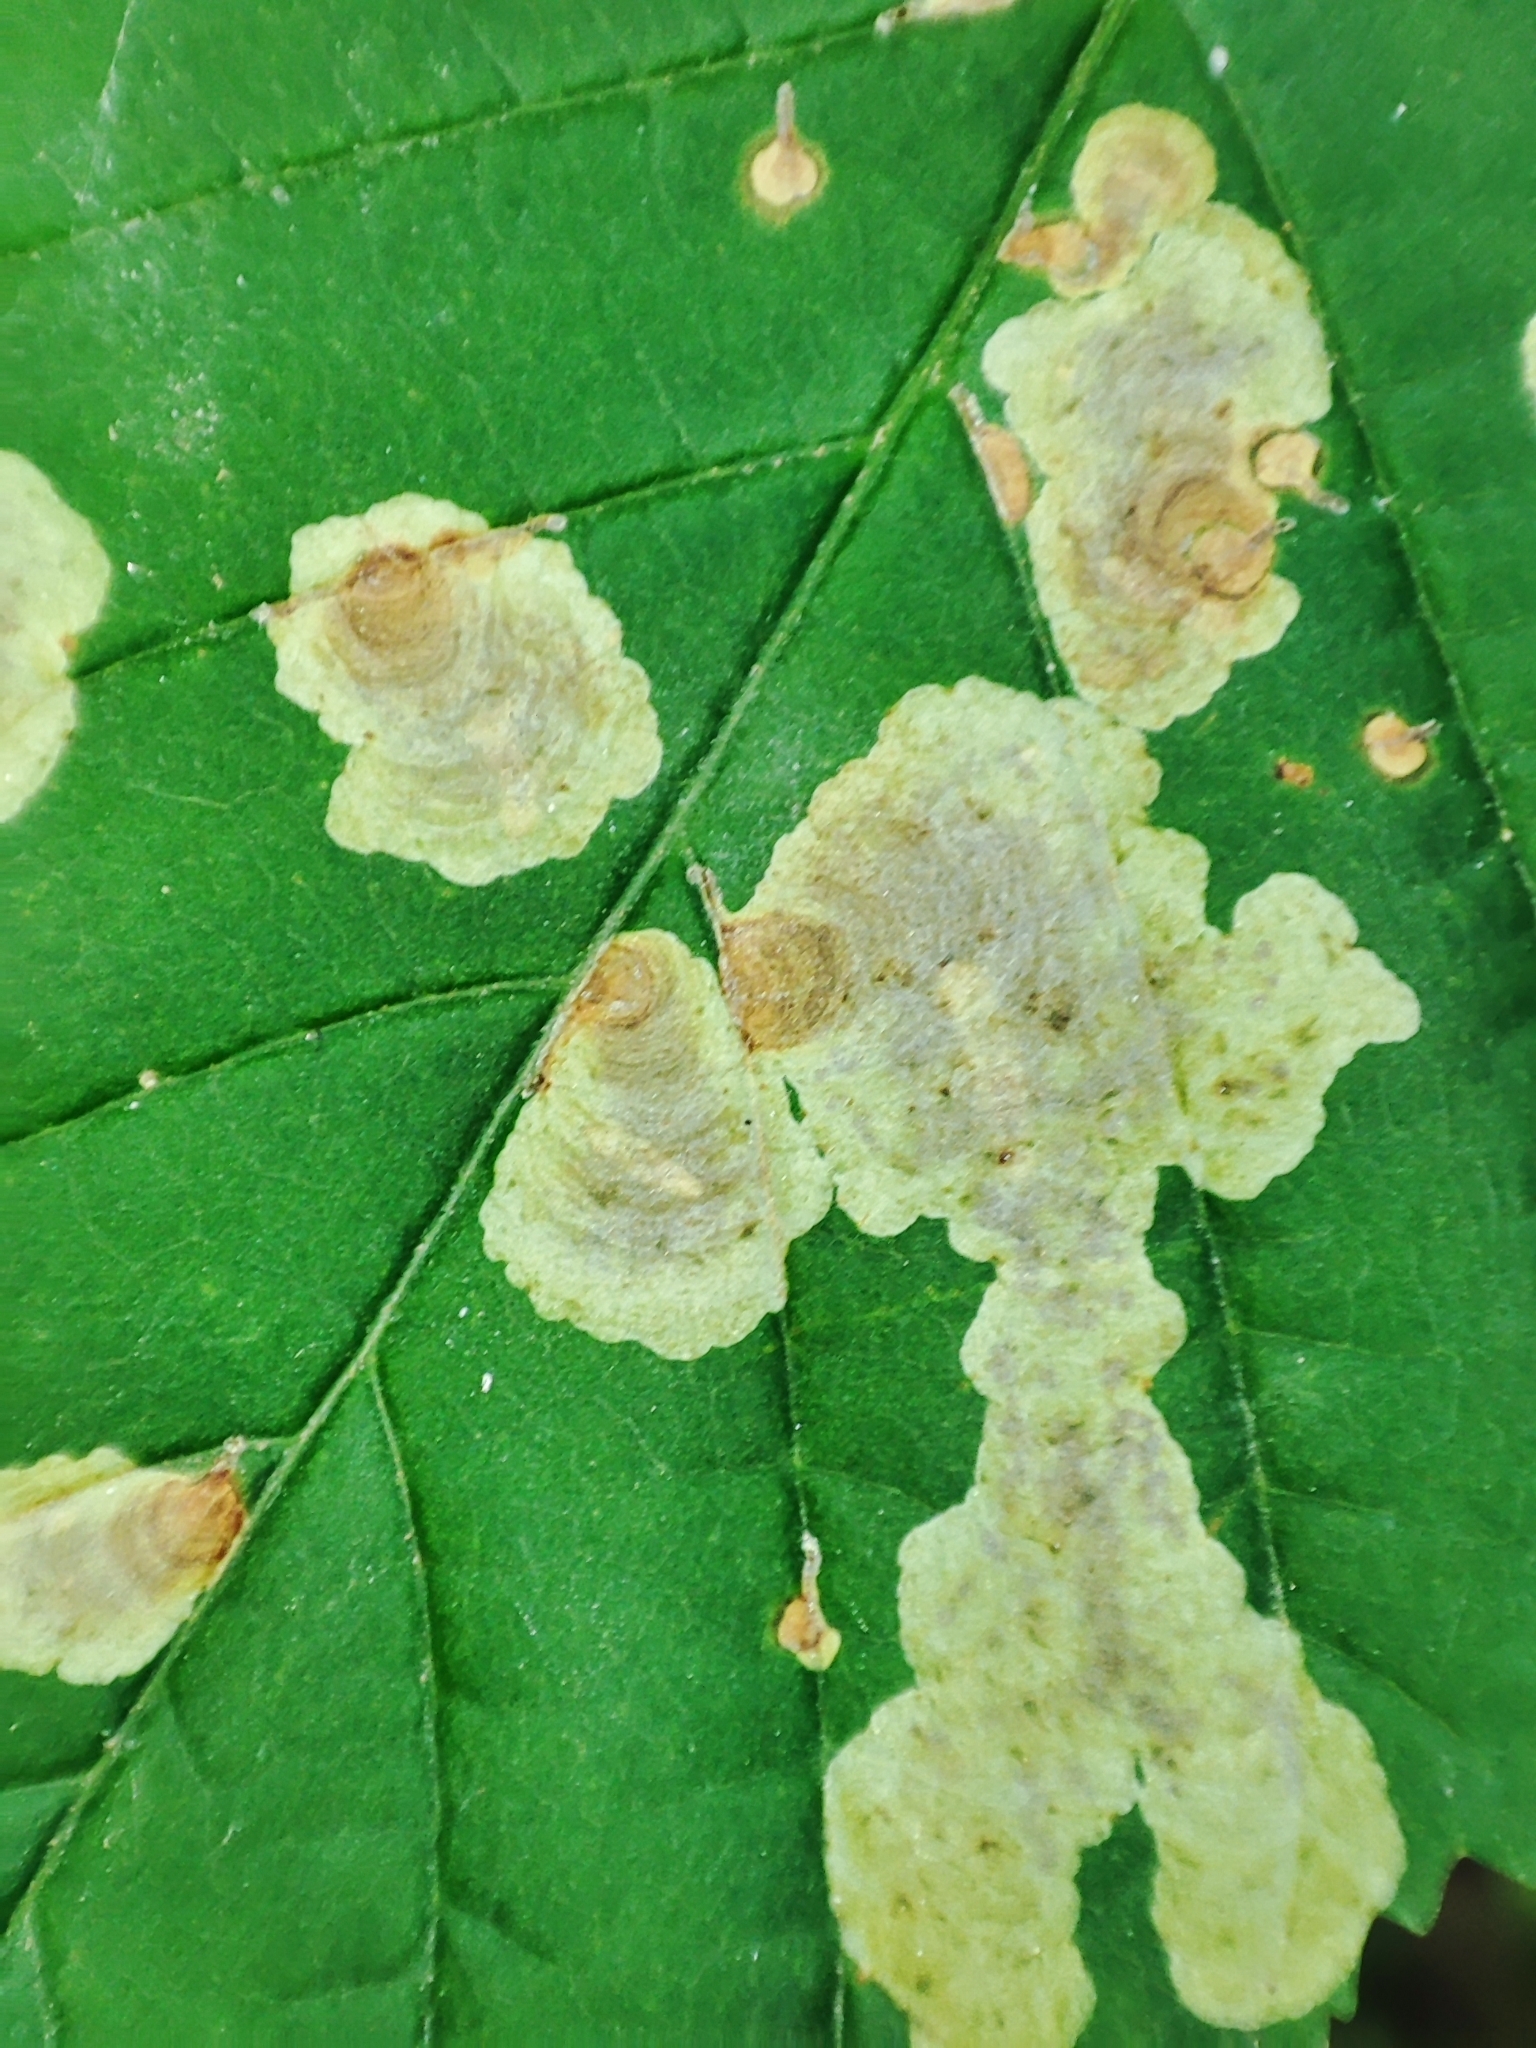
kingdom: Animalia
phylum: Arthropoda
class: Insecta
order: Lepidoptera
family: Gracillariidae
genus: Cameraria
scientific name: Cameraria ohridella
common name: Horse-chestnut leaf-miner
